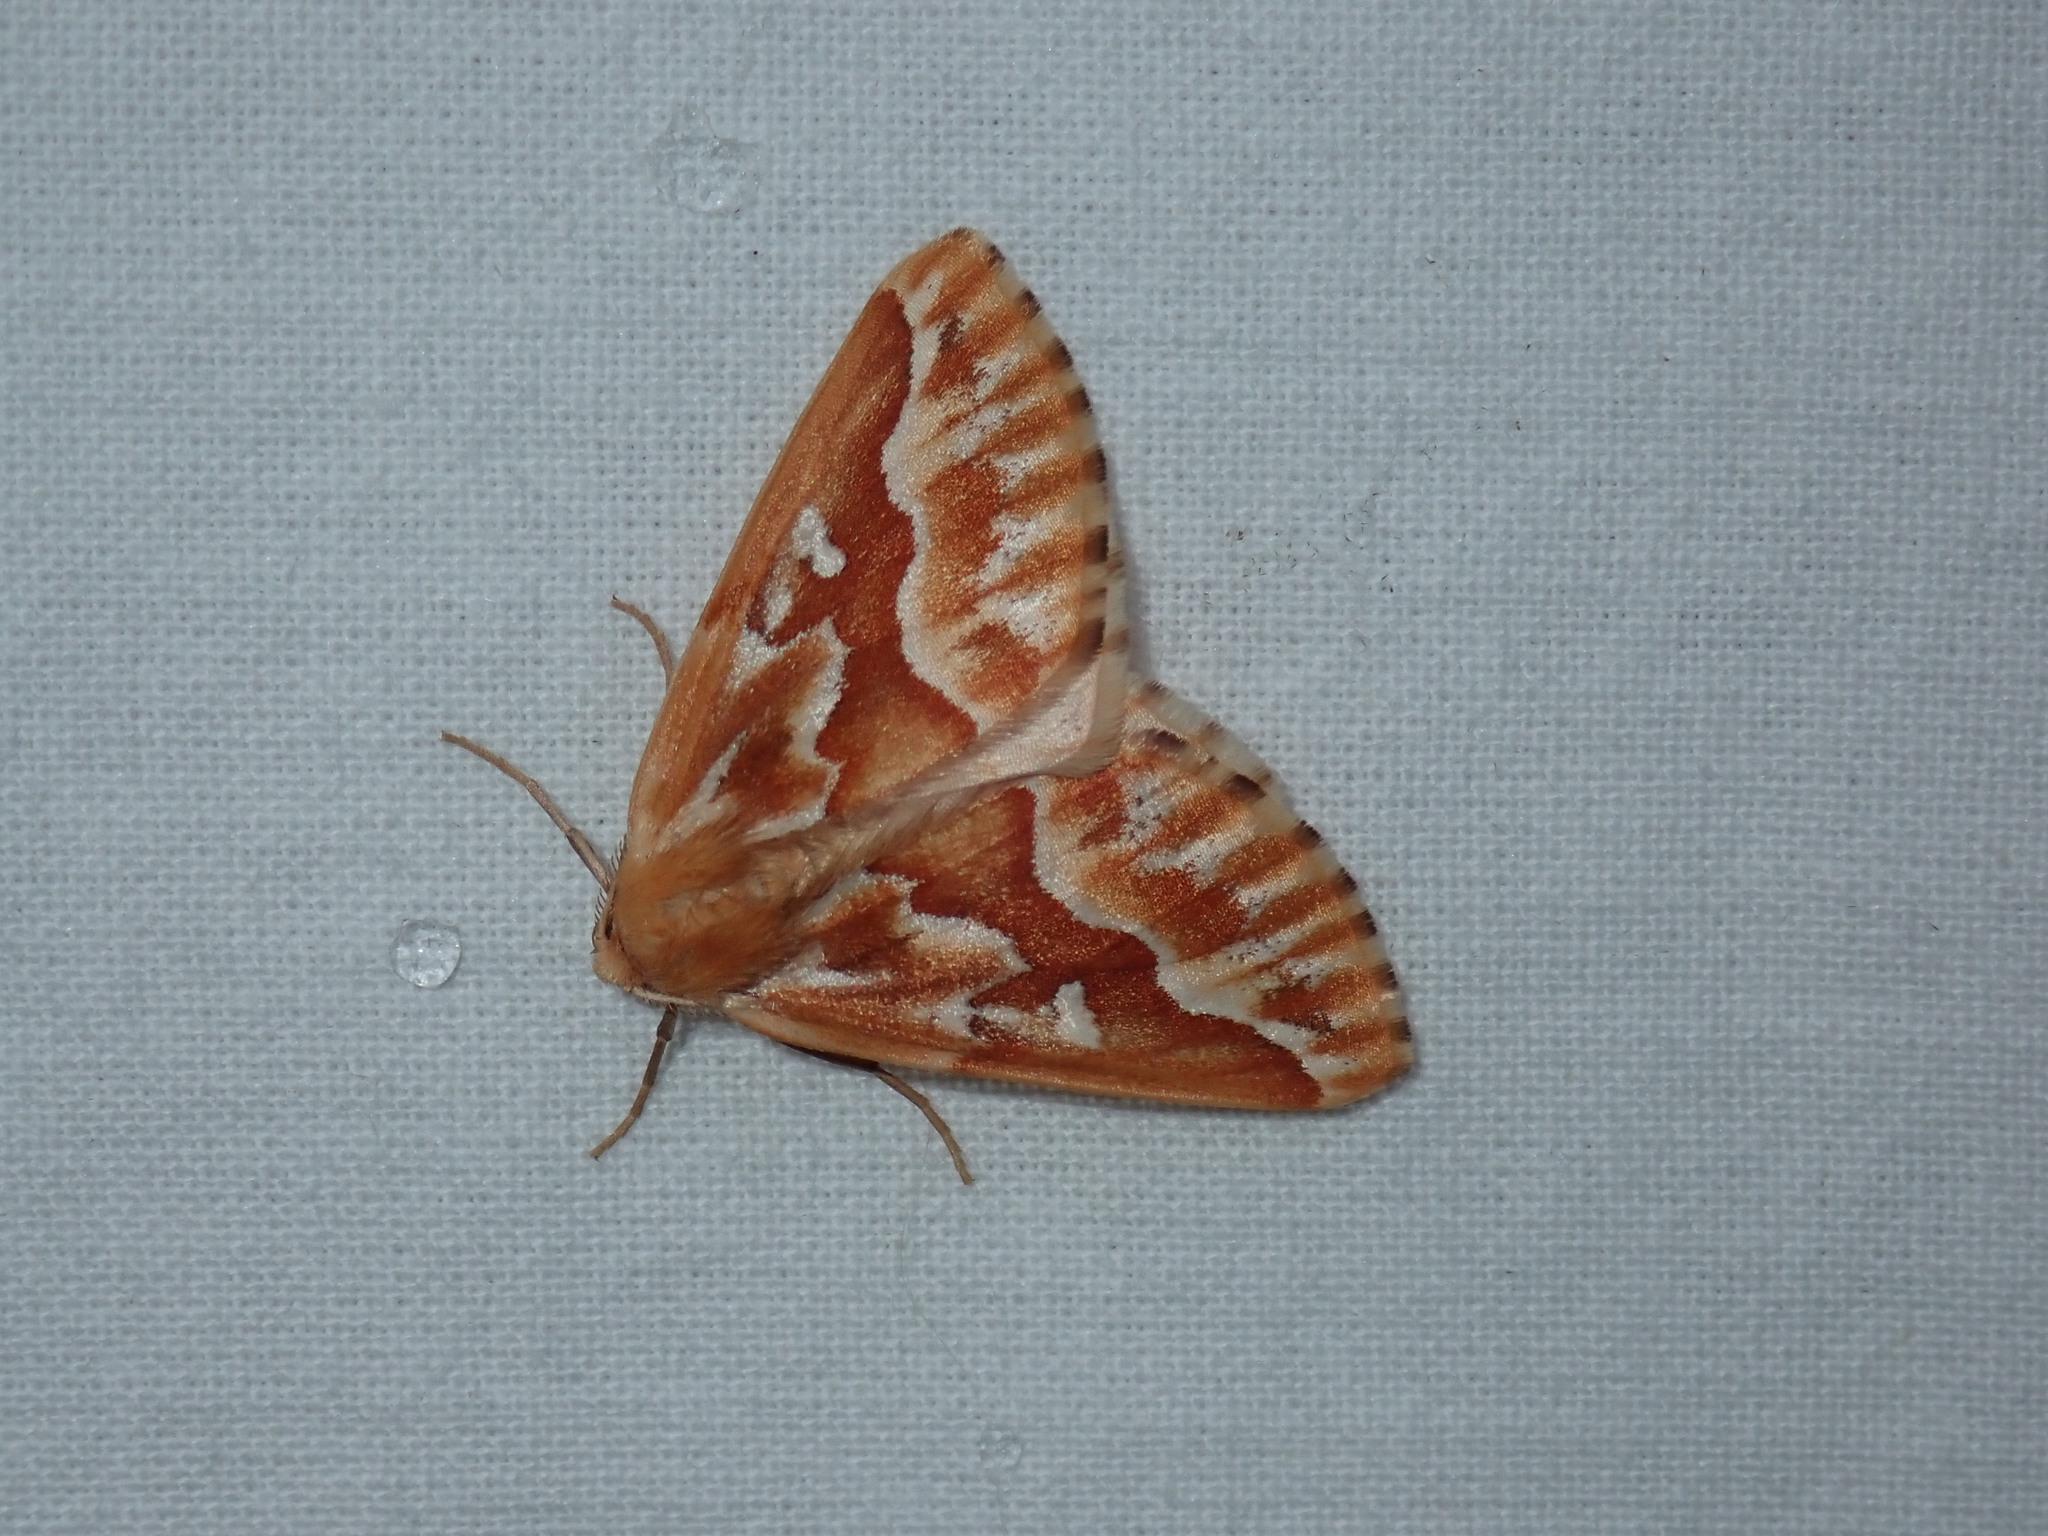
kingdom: Animalia
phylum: Arthropoda
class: Insecta
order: Lepidoptera
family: Geometridae
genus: Caripeta
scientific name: Caripeta piniata
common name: Northern pine looper moth
